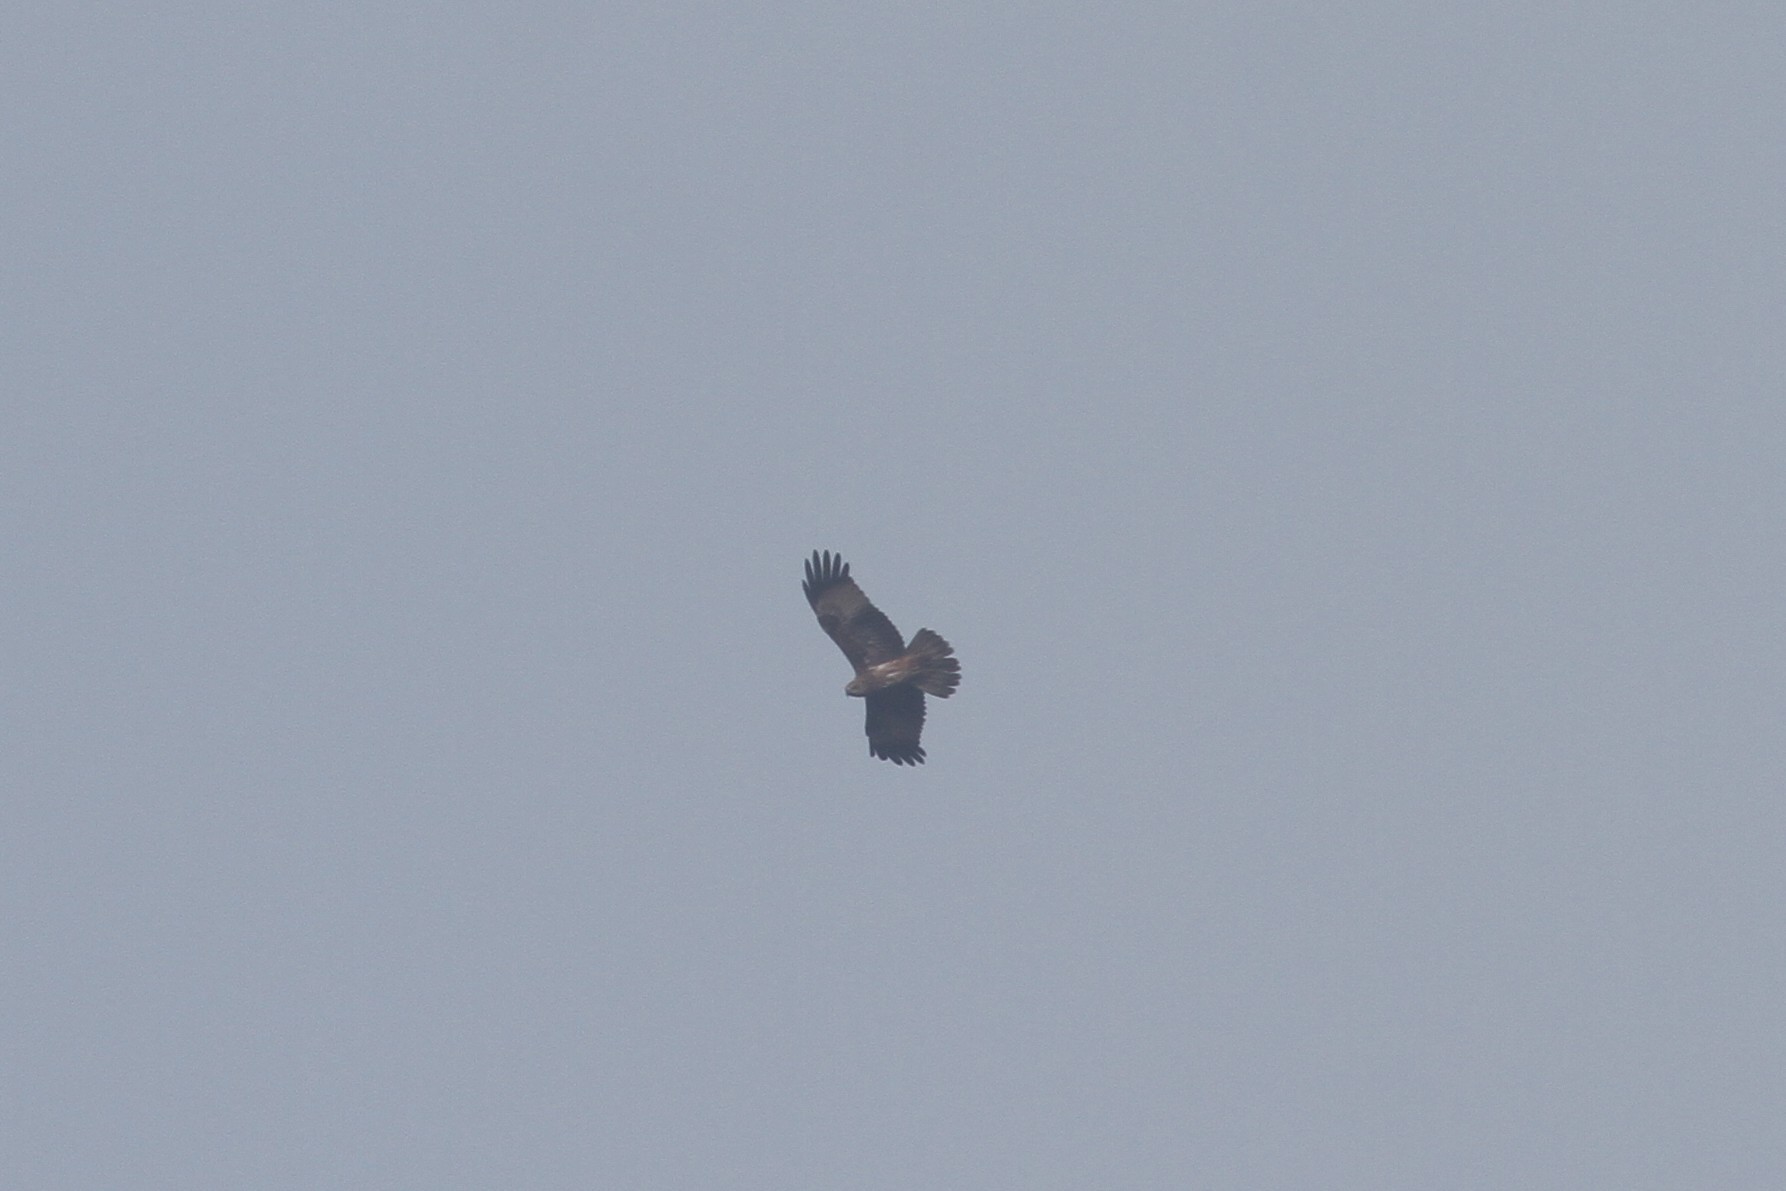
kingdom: Animalia
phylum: Chordata
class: Aves
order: Accipitriformes
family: Accipitridae
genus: Haliastur
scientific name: Haliastur indus
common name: Brahminy kite
